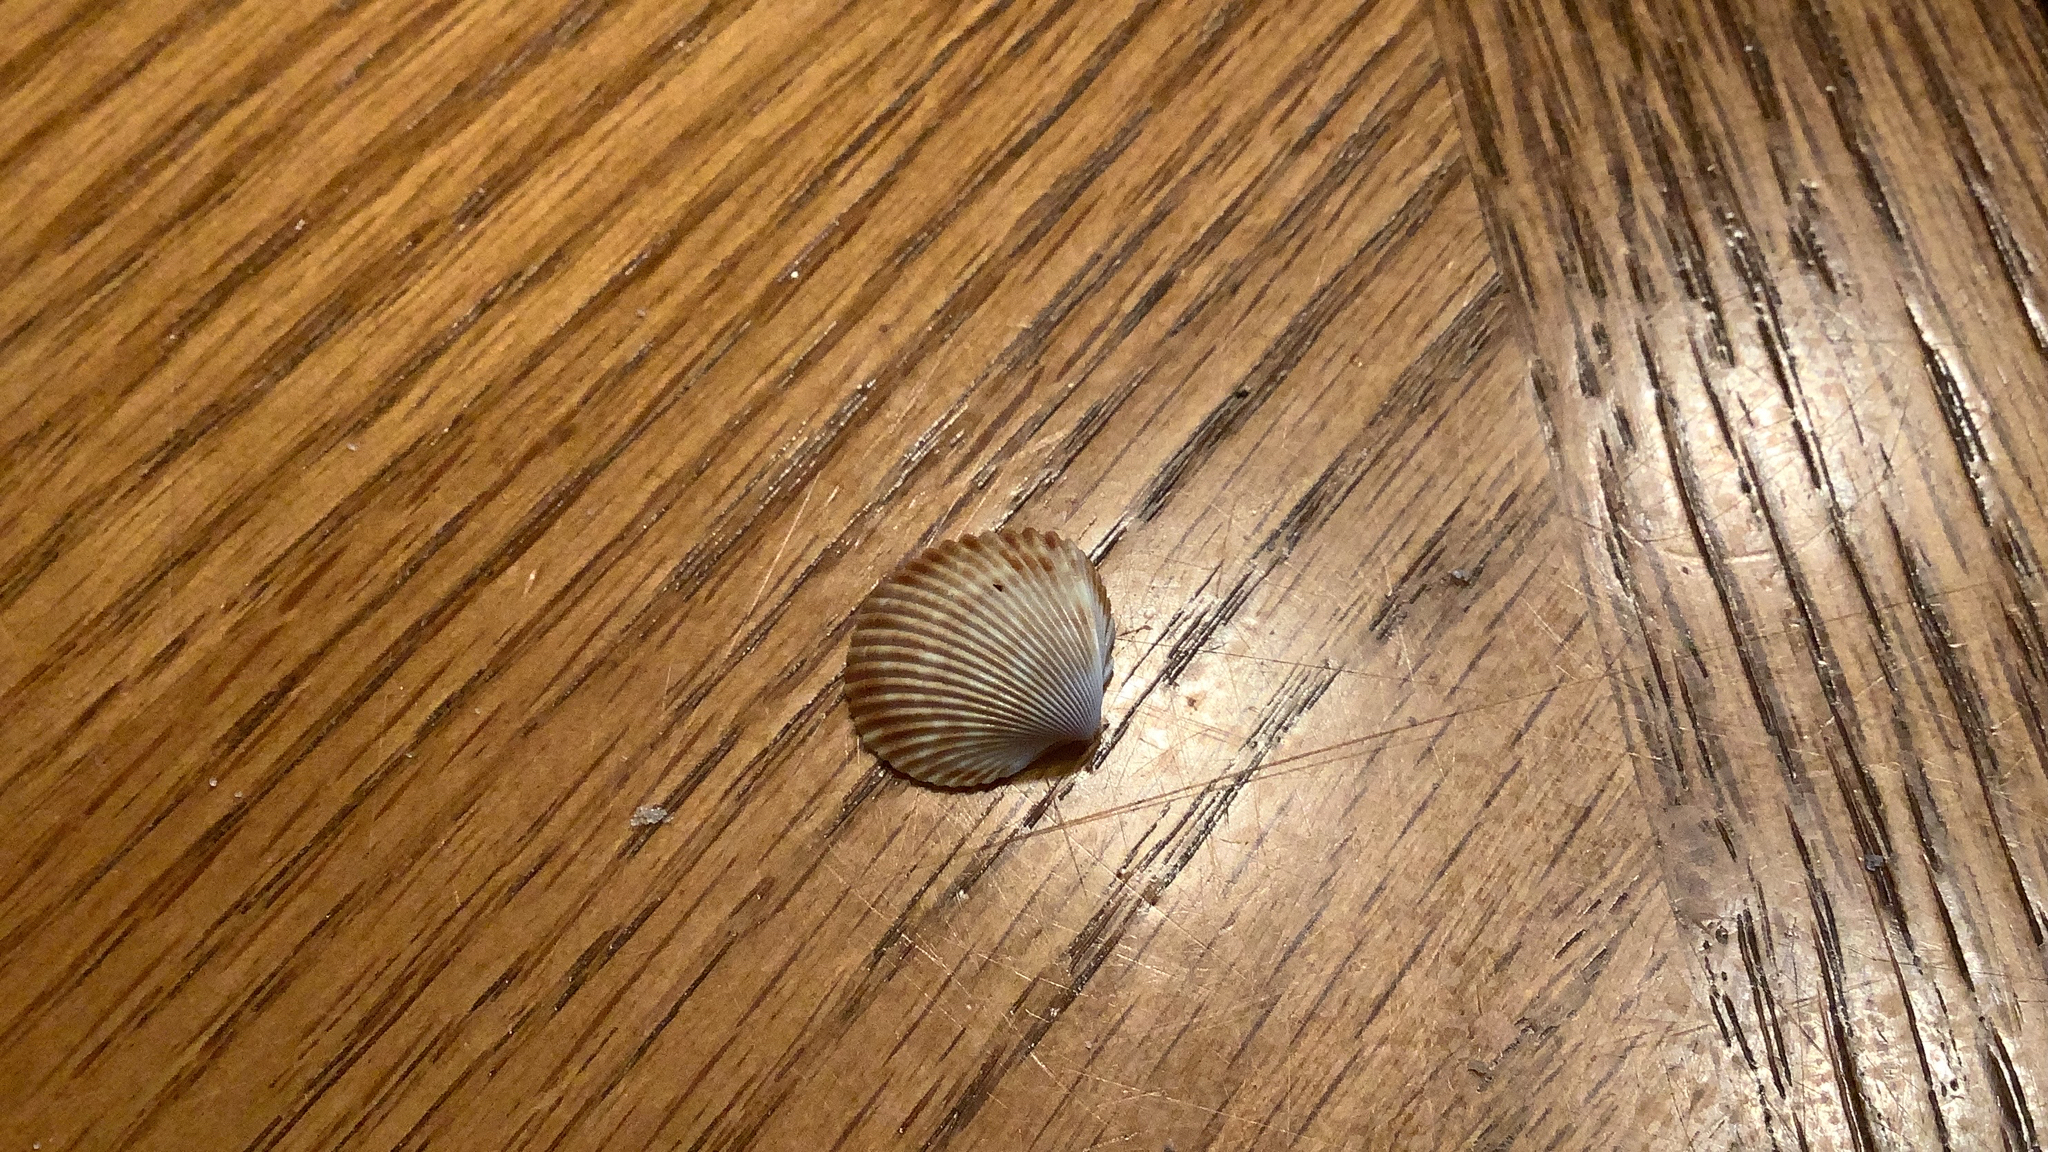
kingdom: Animalia
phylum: Mollusca
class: Bivalvia
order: Cardiida
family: Cardiidae
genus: Dinocardium
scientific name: Dinocardium robustum
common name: Atlantic giant cockle
